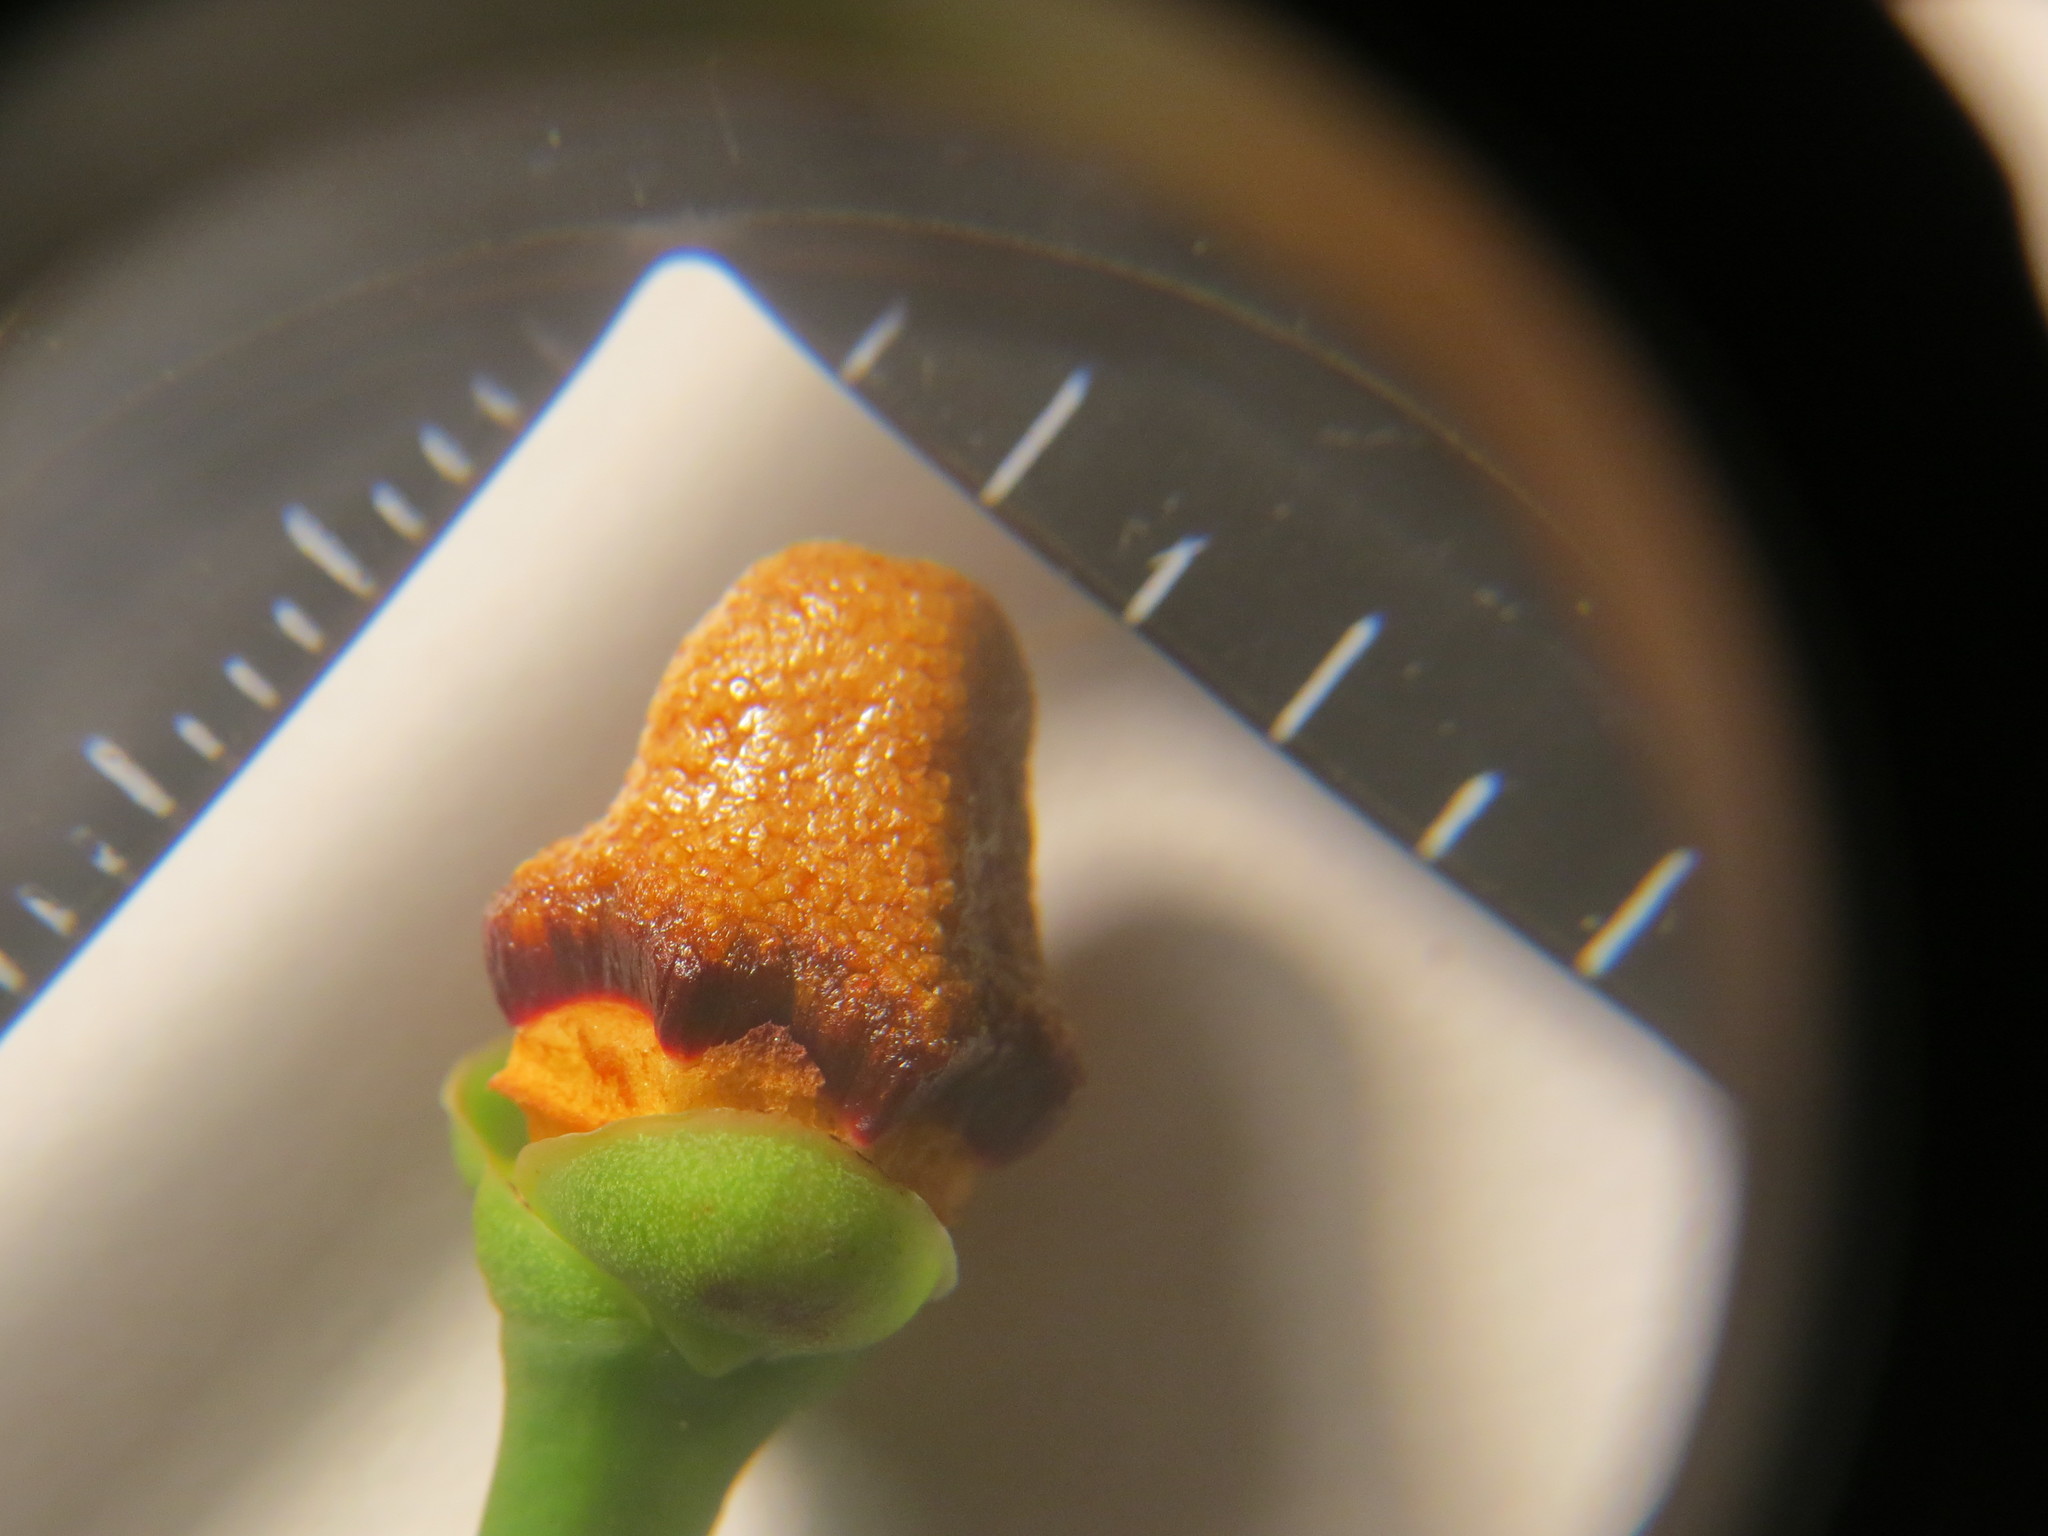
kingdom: Plantae
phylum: Tracheophyta
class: Magnoliopsida
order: Malpighiales
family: Clusiaceae
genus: Clusia
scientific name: Clusia lanceolata
